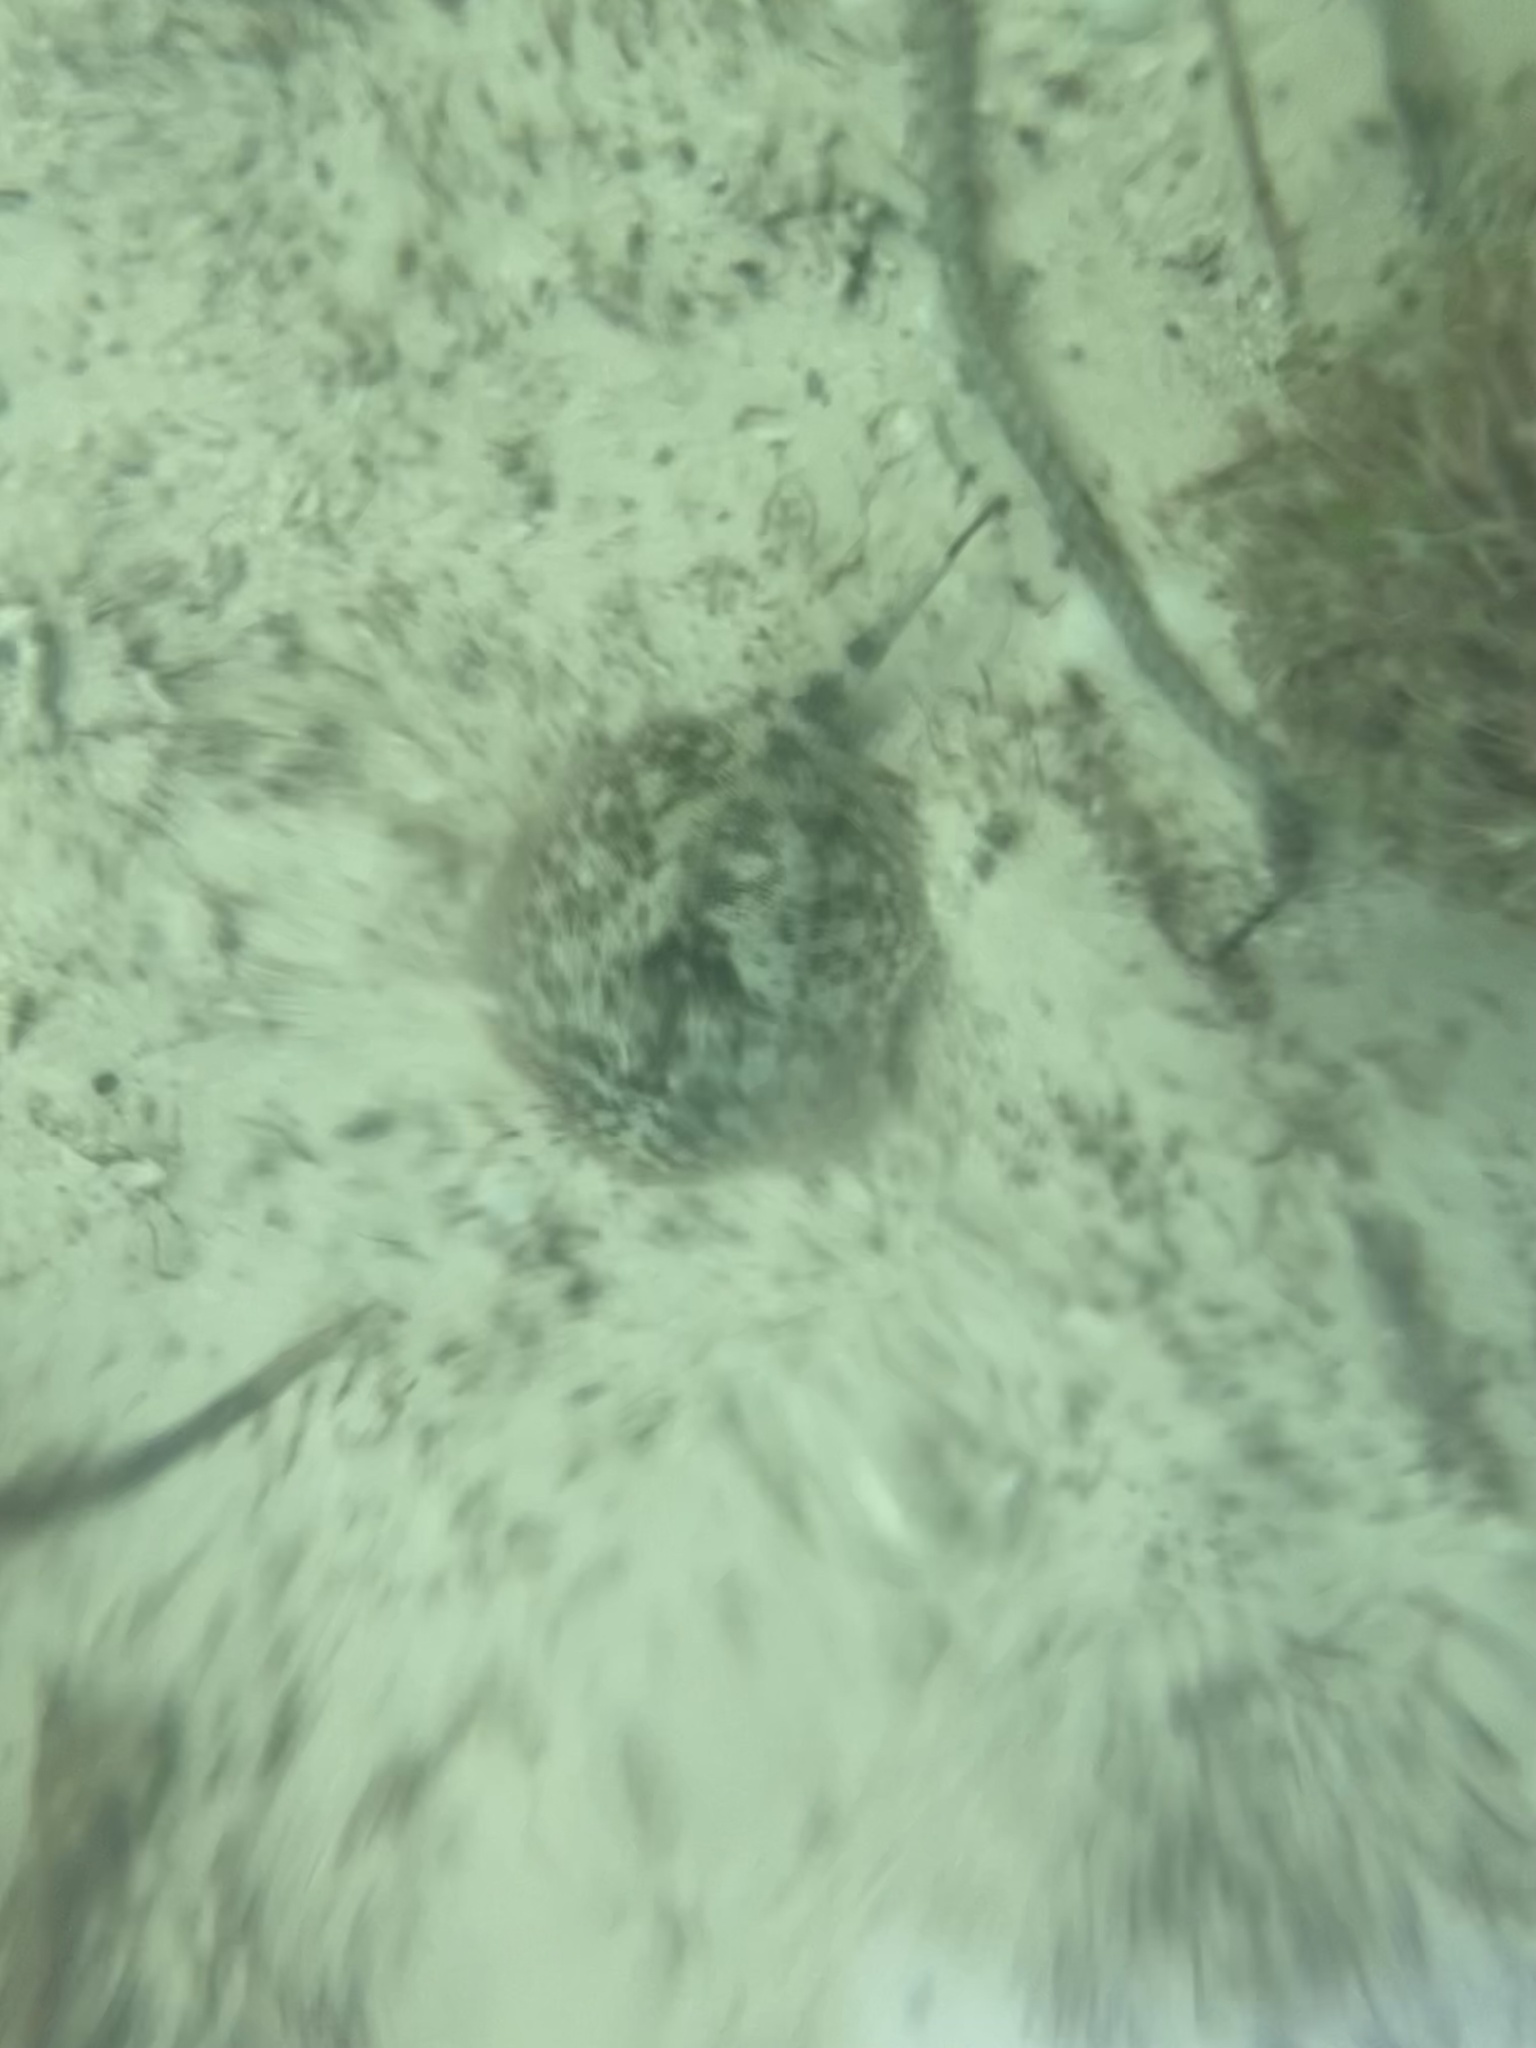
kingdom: Animalia
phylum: Chordata
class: Elasmobranchii
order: Myliobatiformes
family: Urotrygonidae
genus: Urobatis
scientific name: Urobatis jamaicensis
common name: Yellow stingray
